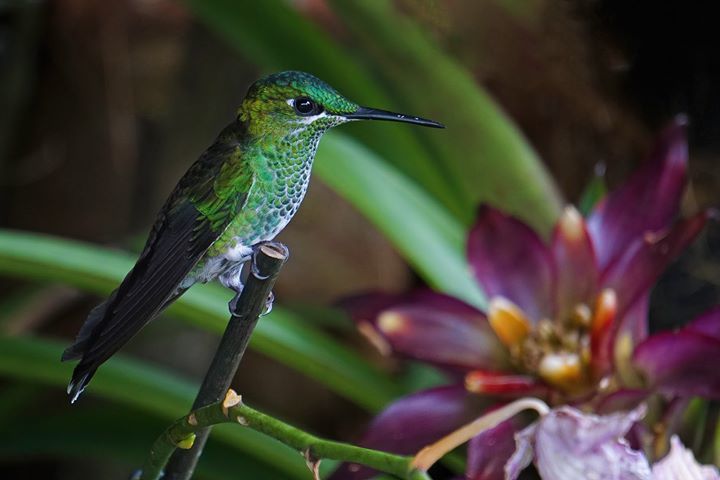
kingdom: Animalia
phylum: Chordata
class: Aves
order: Apodiformes
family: Trochilidae
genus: Heliodoxa
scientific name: Heliodoxa jacula
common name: Green-crowned brilliant
